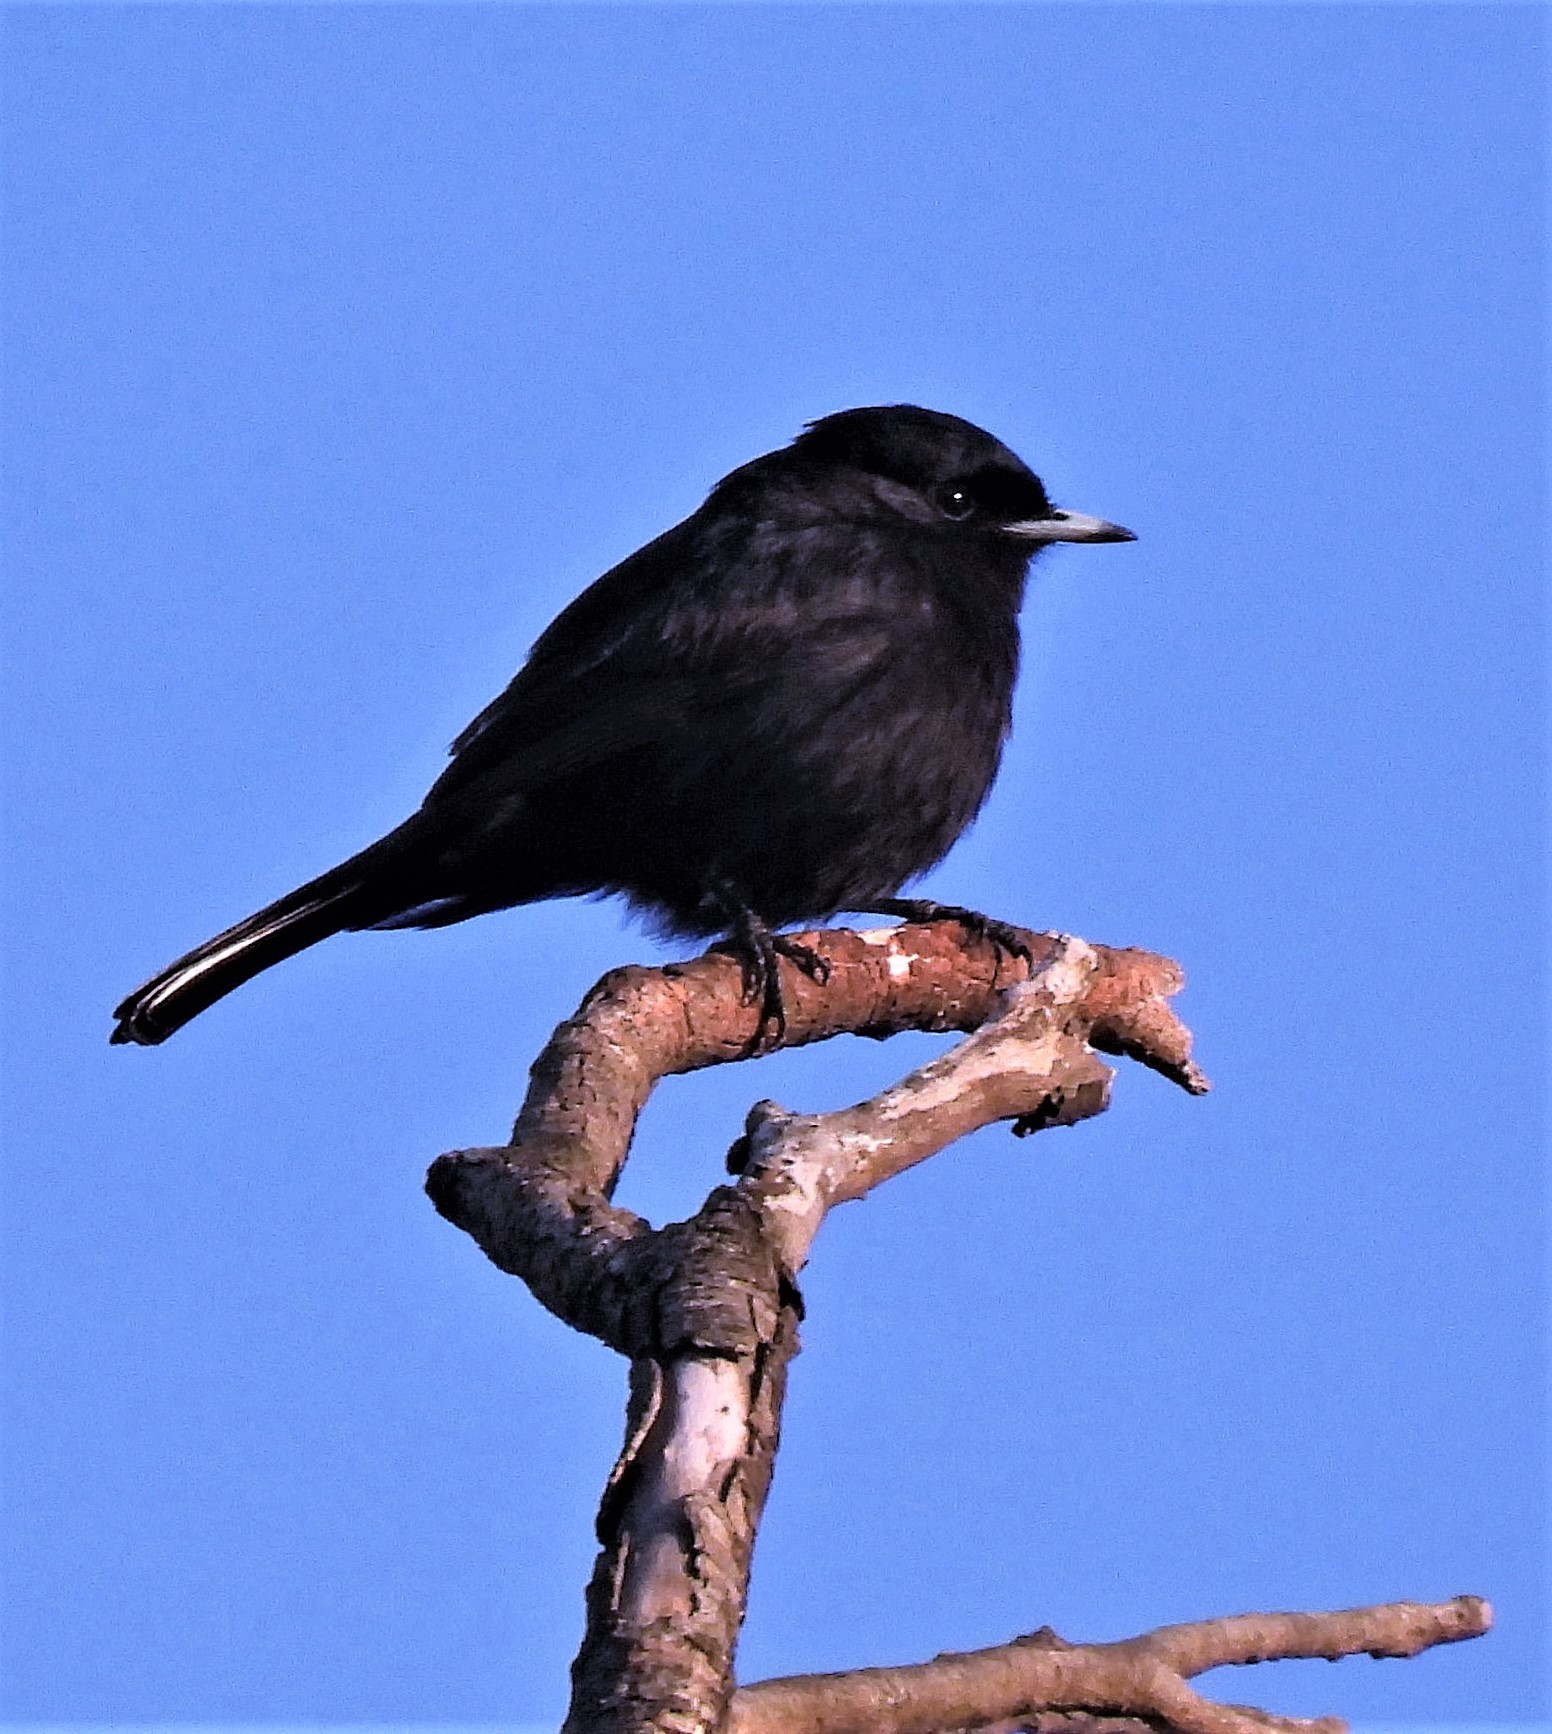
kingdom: Animalia
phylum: Chordata
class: Aves
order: Passeriformes
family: Tyrannidae
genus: Knipolegus
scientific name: Knipolegus aterrimus
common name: White-winged black tyrant
